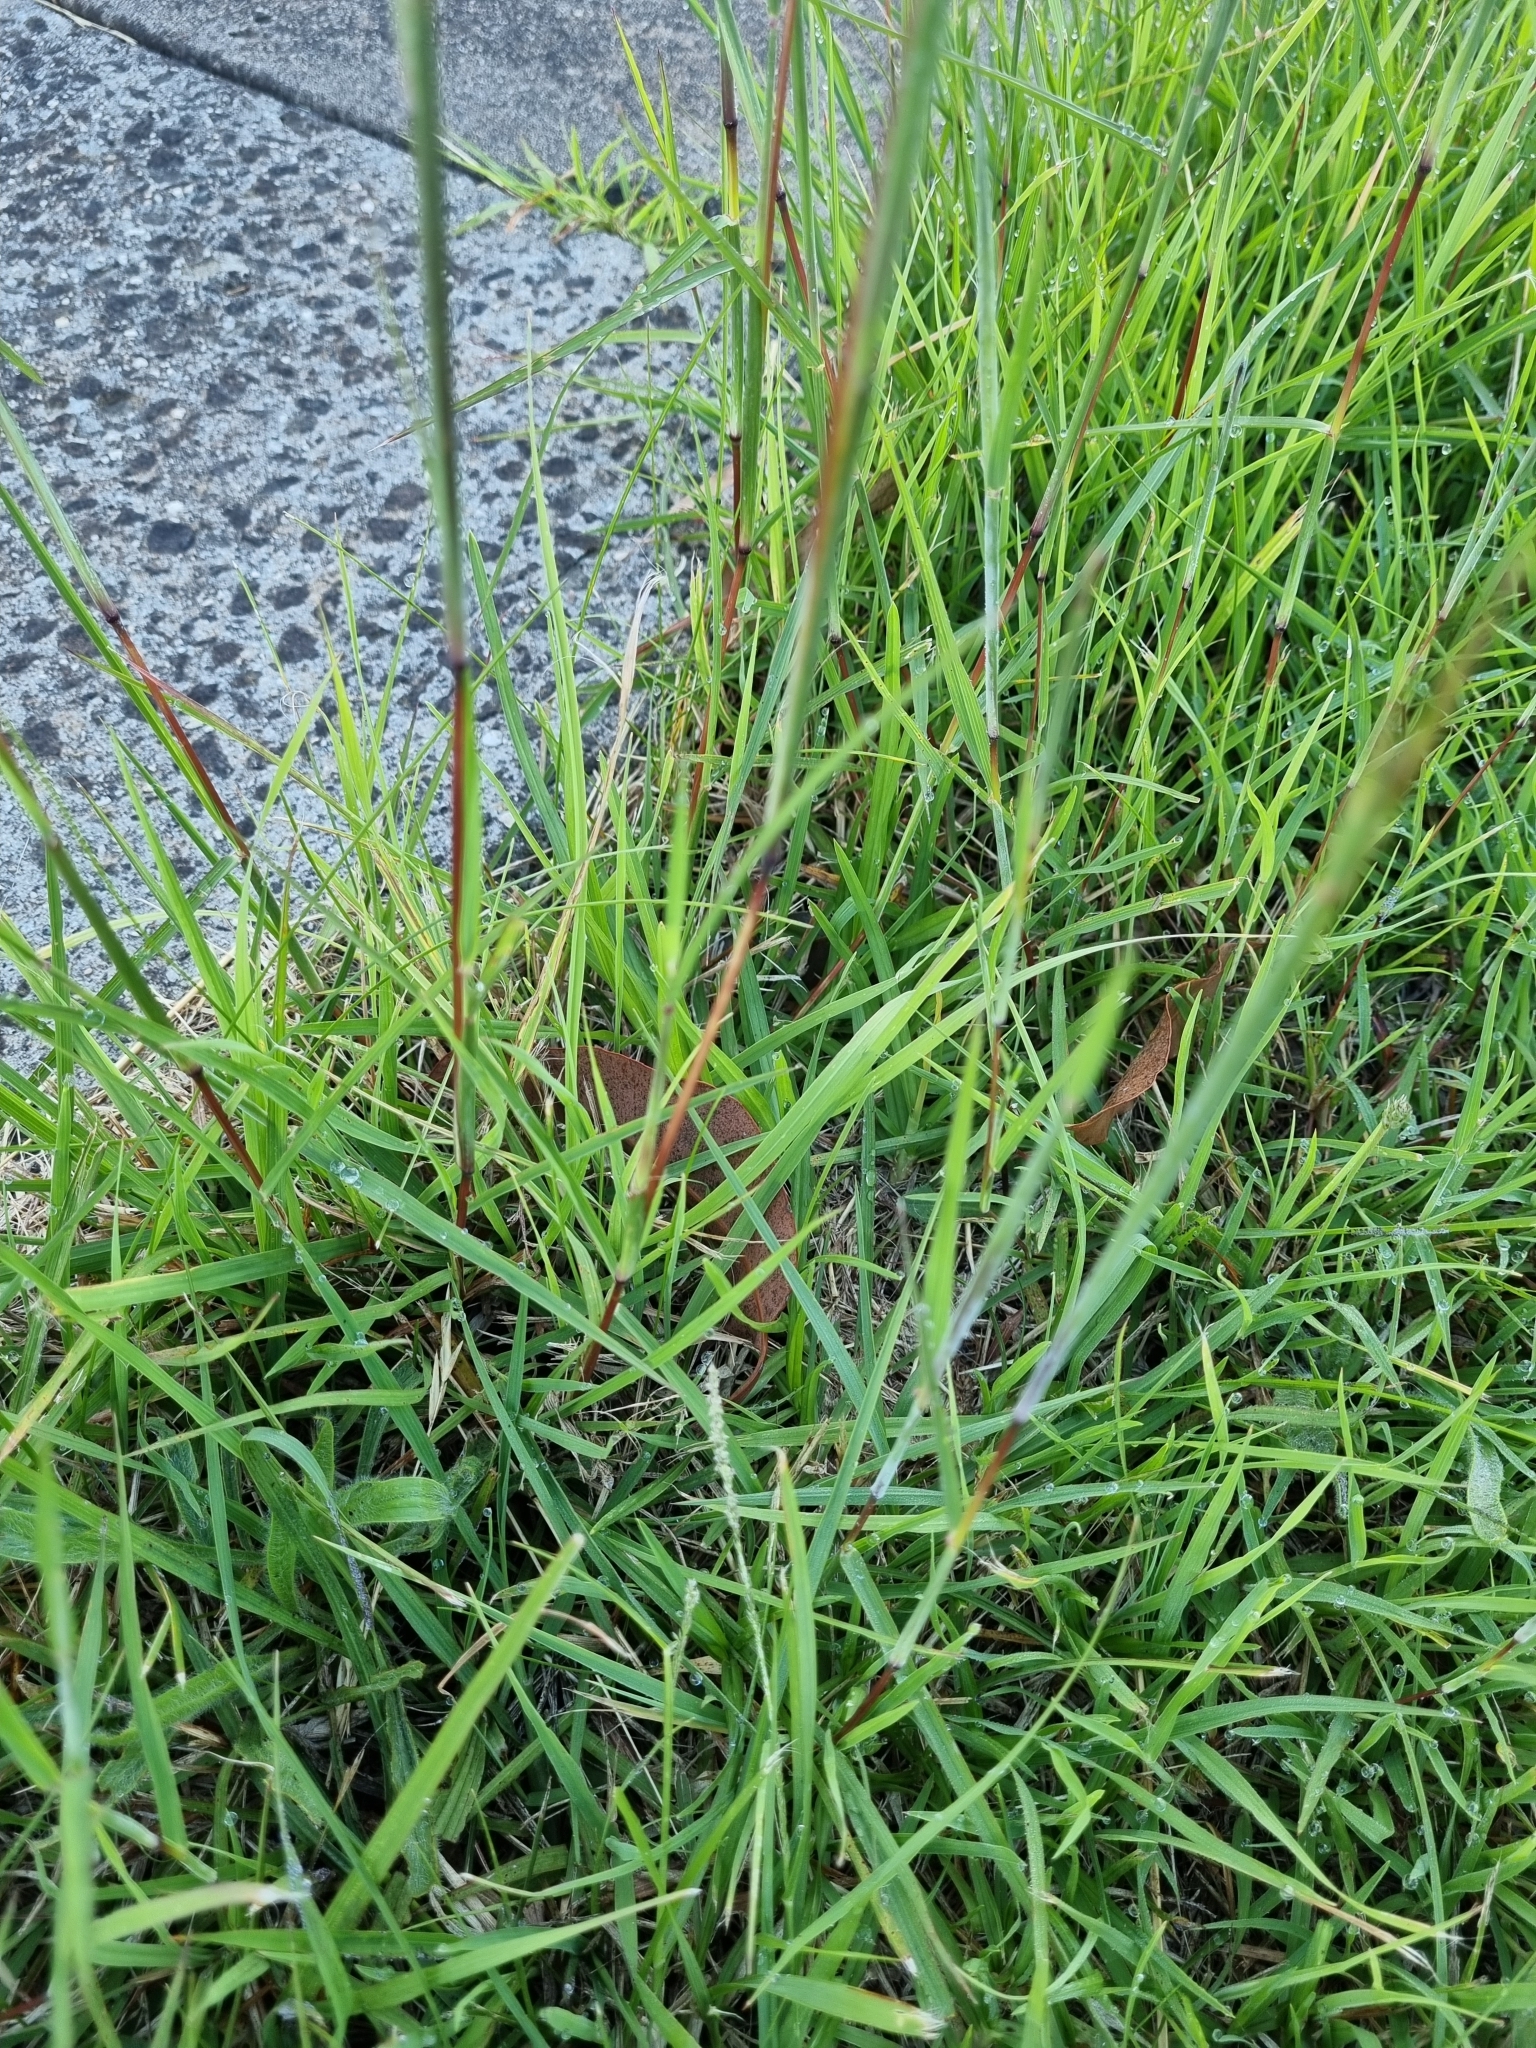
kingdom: Plantae
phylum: Tracheophyta
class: Liliopsida
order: Poales
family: Poaceae
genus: Bothriochloa
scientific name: Bothriochloa macra
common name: Pitted beard grass
